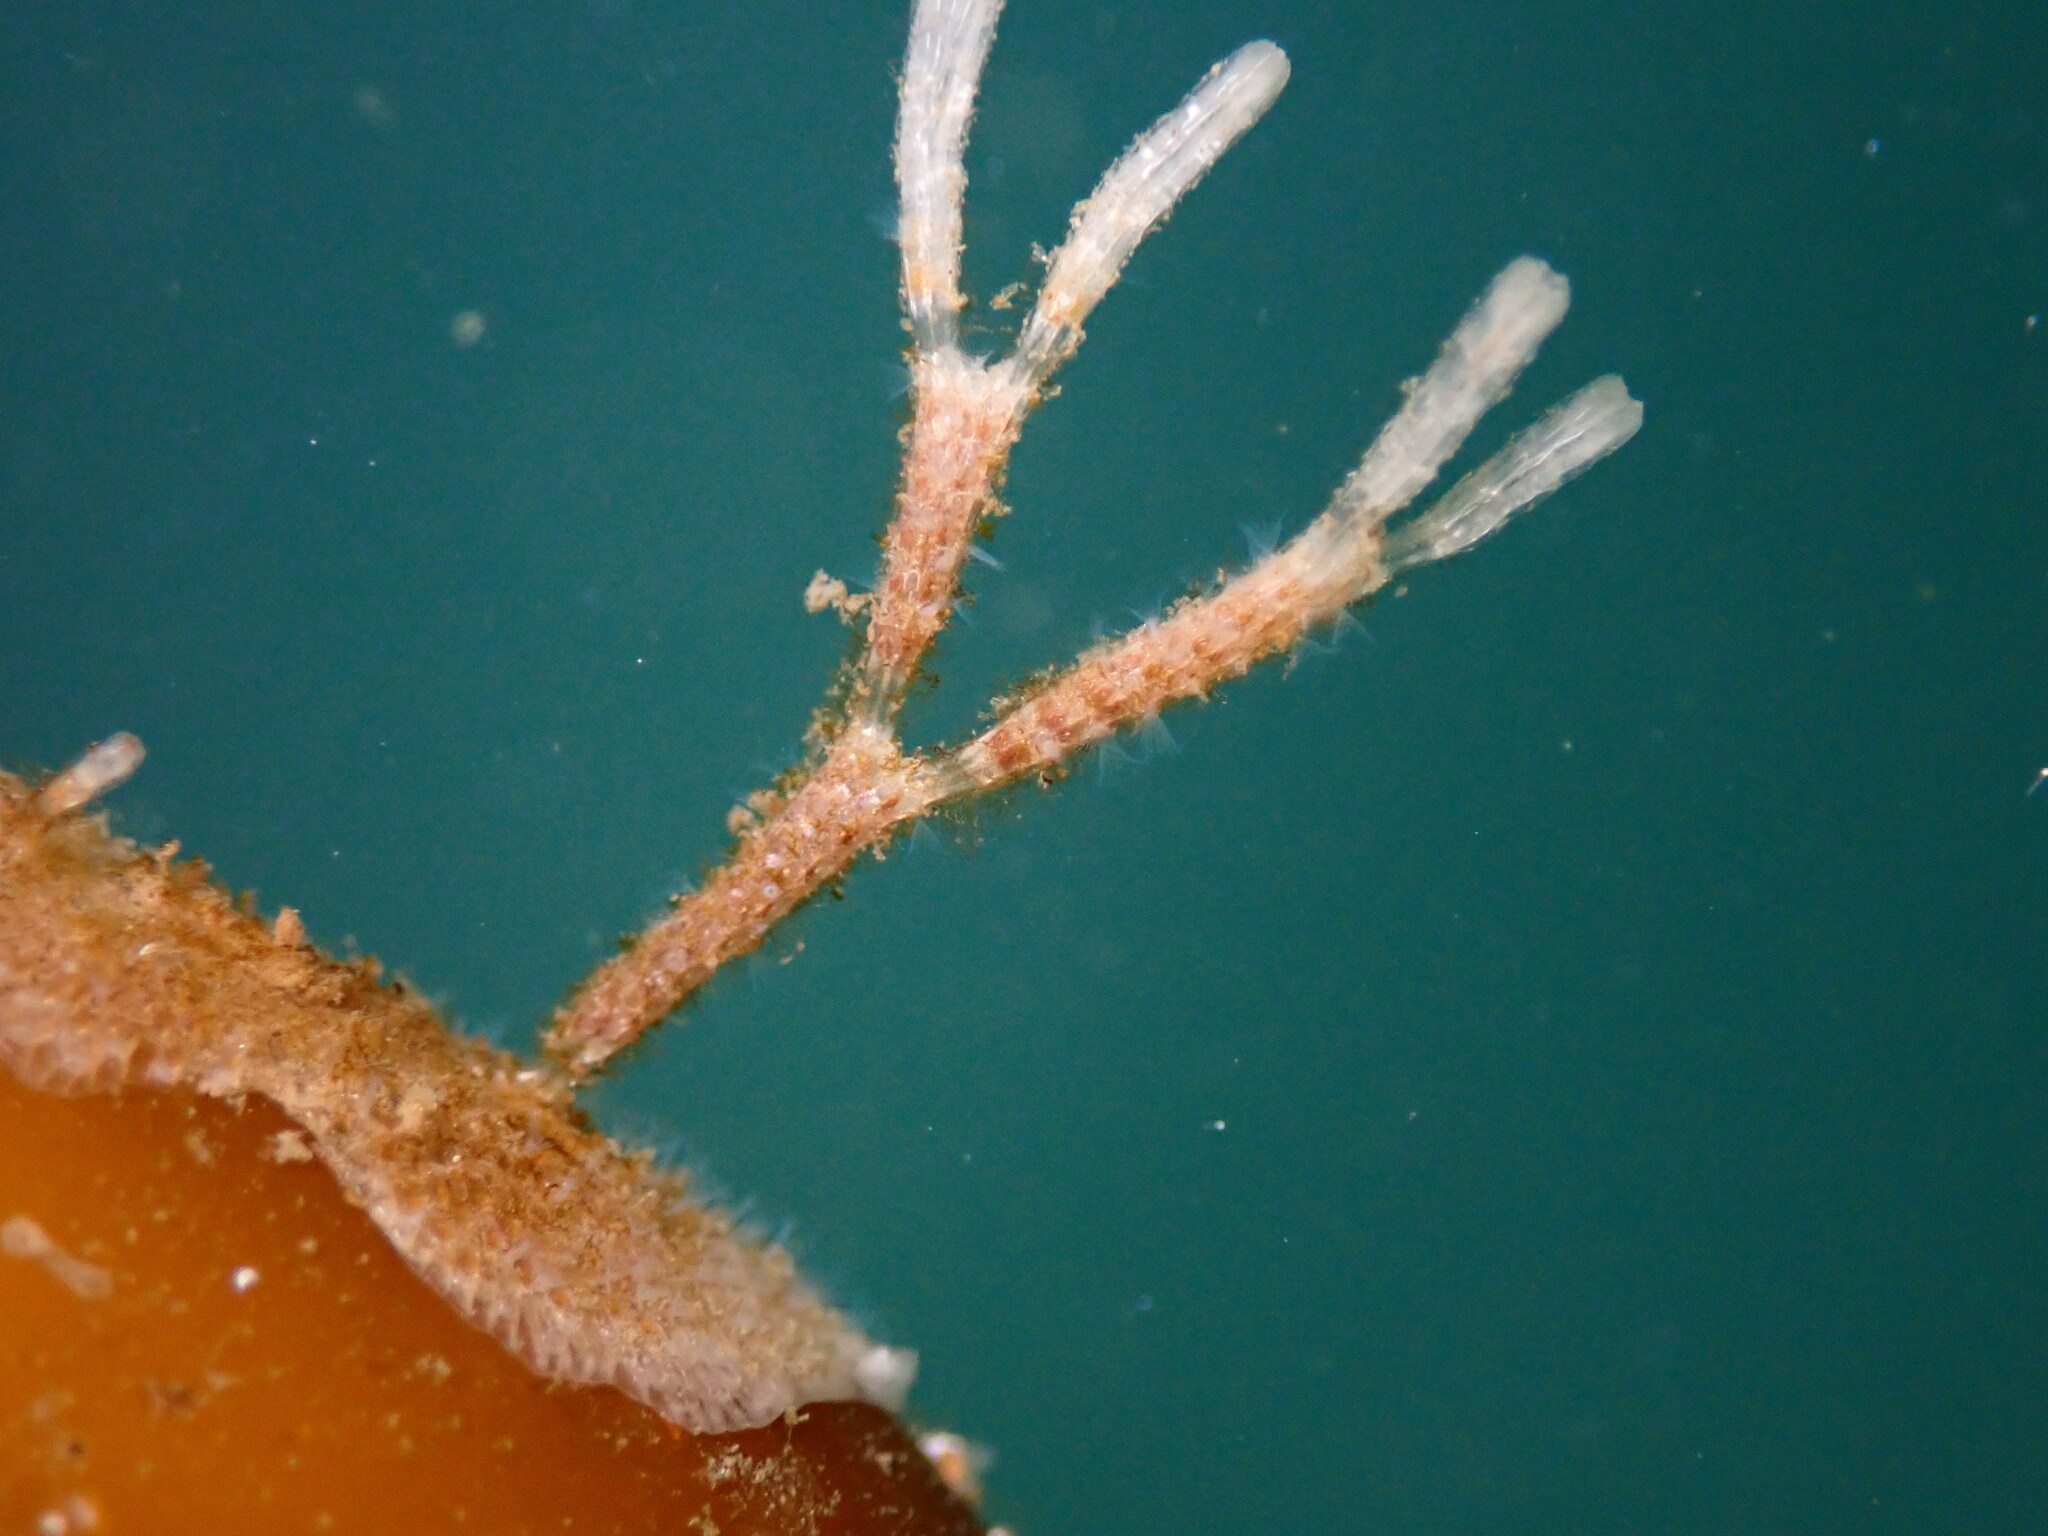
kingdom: Animalia
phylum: Bryozoa
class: Gymnolaemata
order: Cheilostomatida
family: Thalamoporellidae
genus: Thalamoporella
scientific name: Thalamoporella californica
